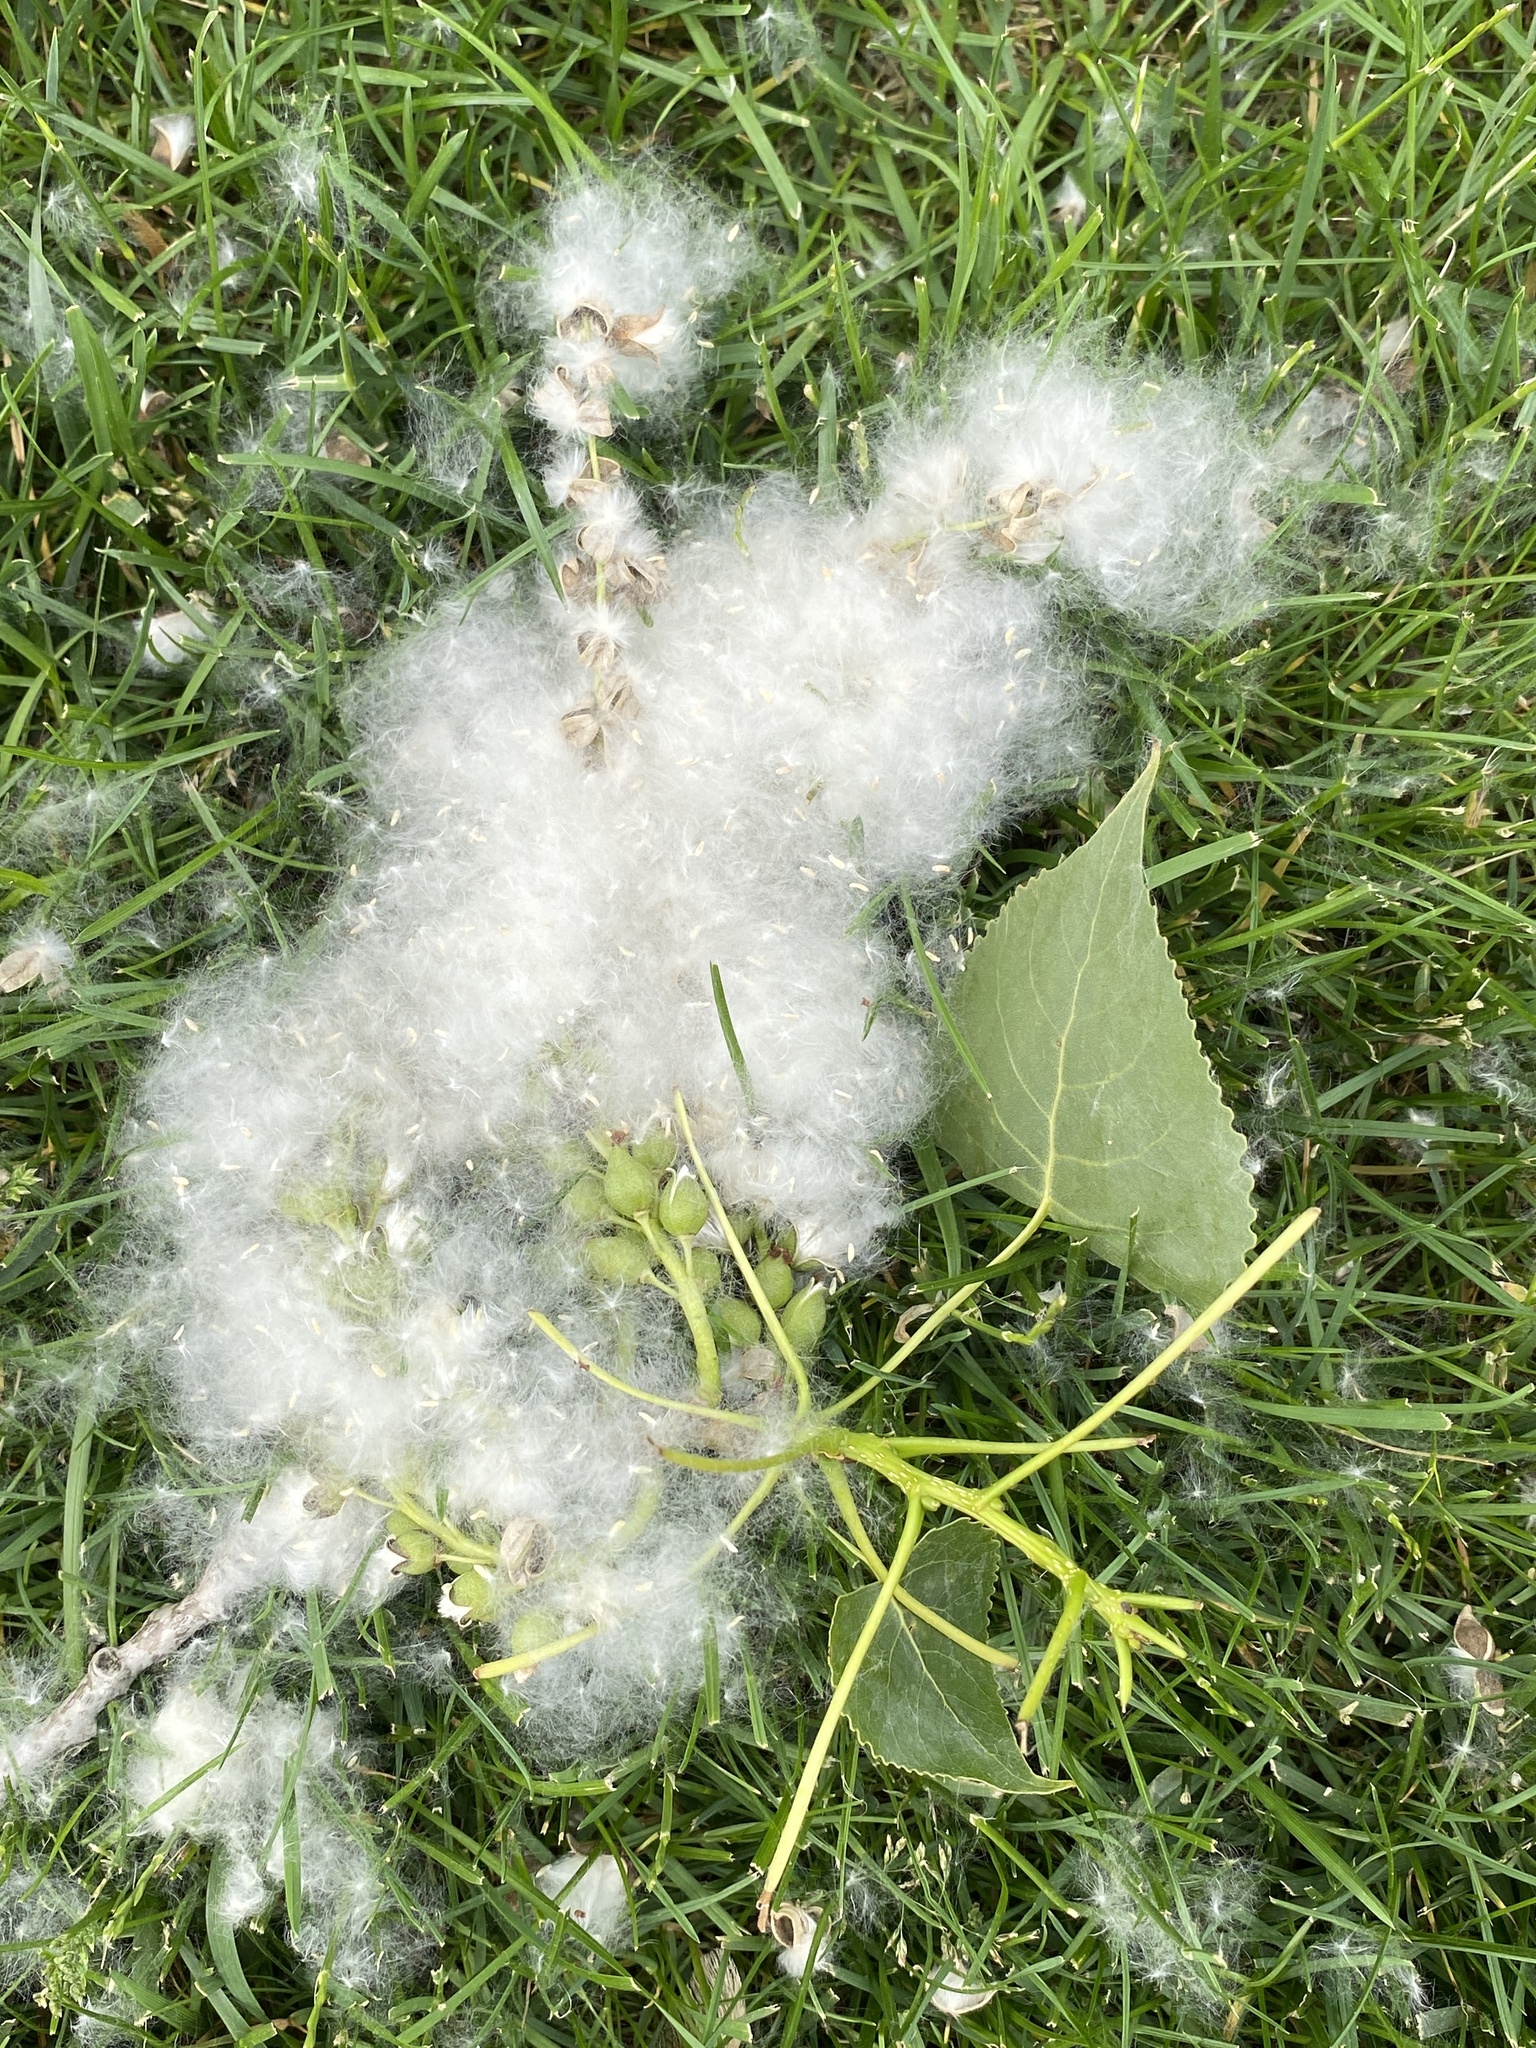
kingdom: Plantae
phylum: Tracheophyta
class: Magnoliopsida
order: Malpighiales
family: Salicaceae
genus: Populus
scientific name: Populus deltoides
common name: Eastern cottonwood
